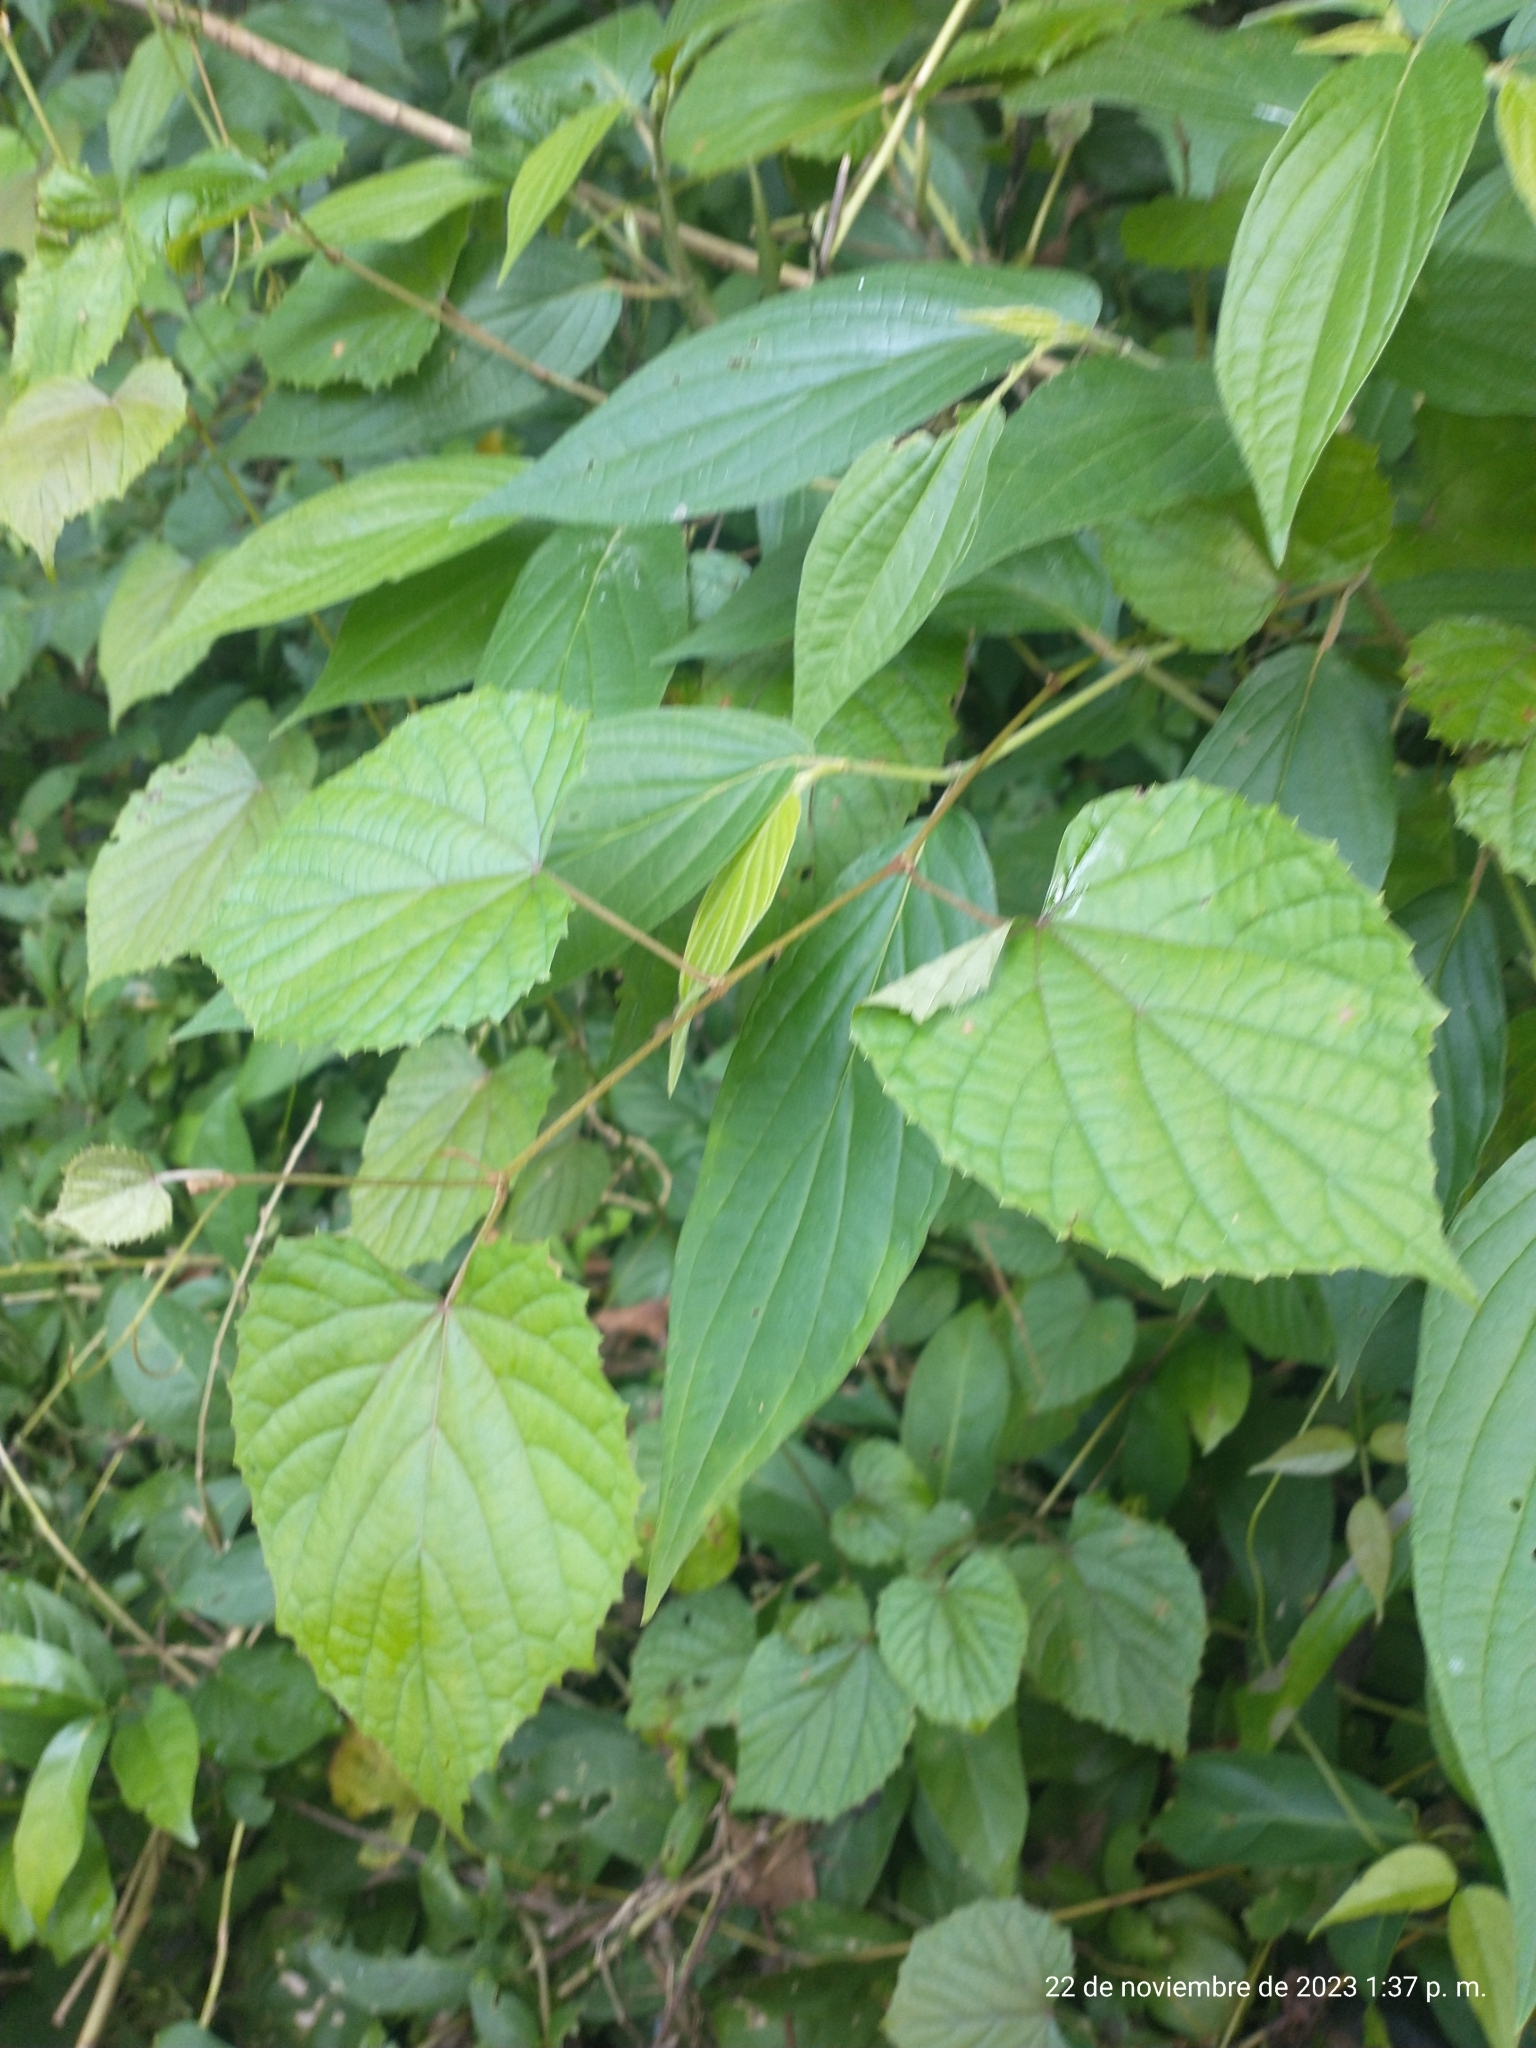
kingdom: Plantae
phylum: Tracheophyta
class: Magnoliopsida
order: Vitales
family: Vitaceae
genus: Vitis
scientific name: Vitis tiliifolia
